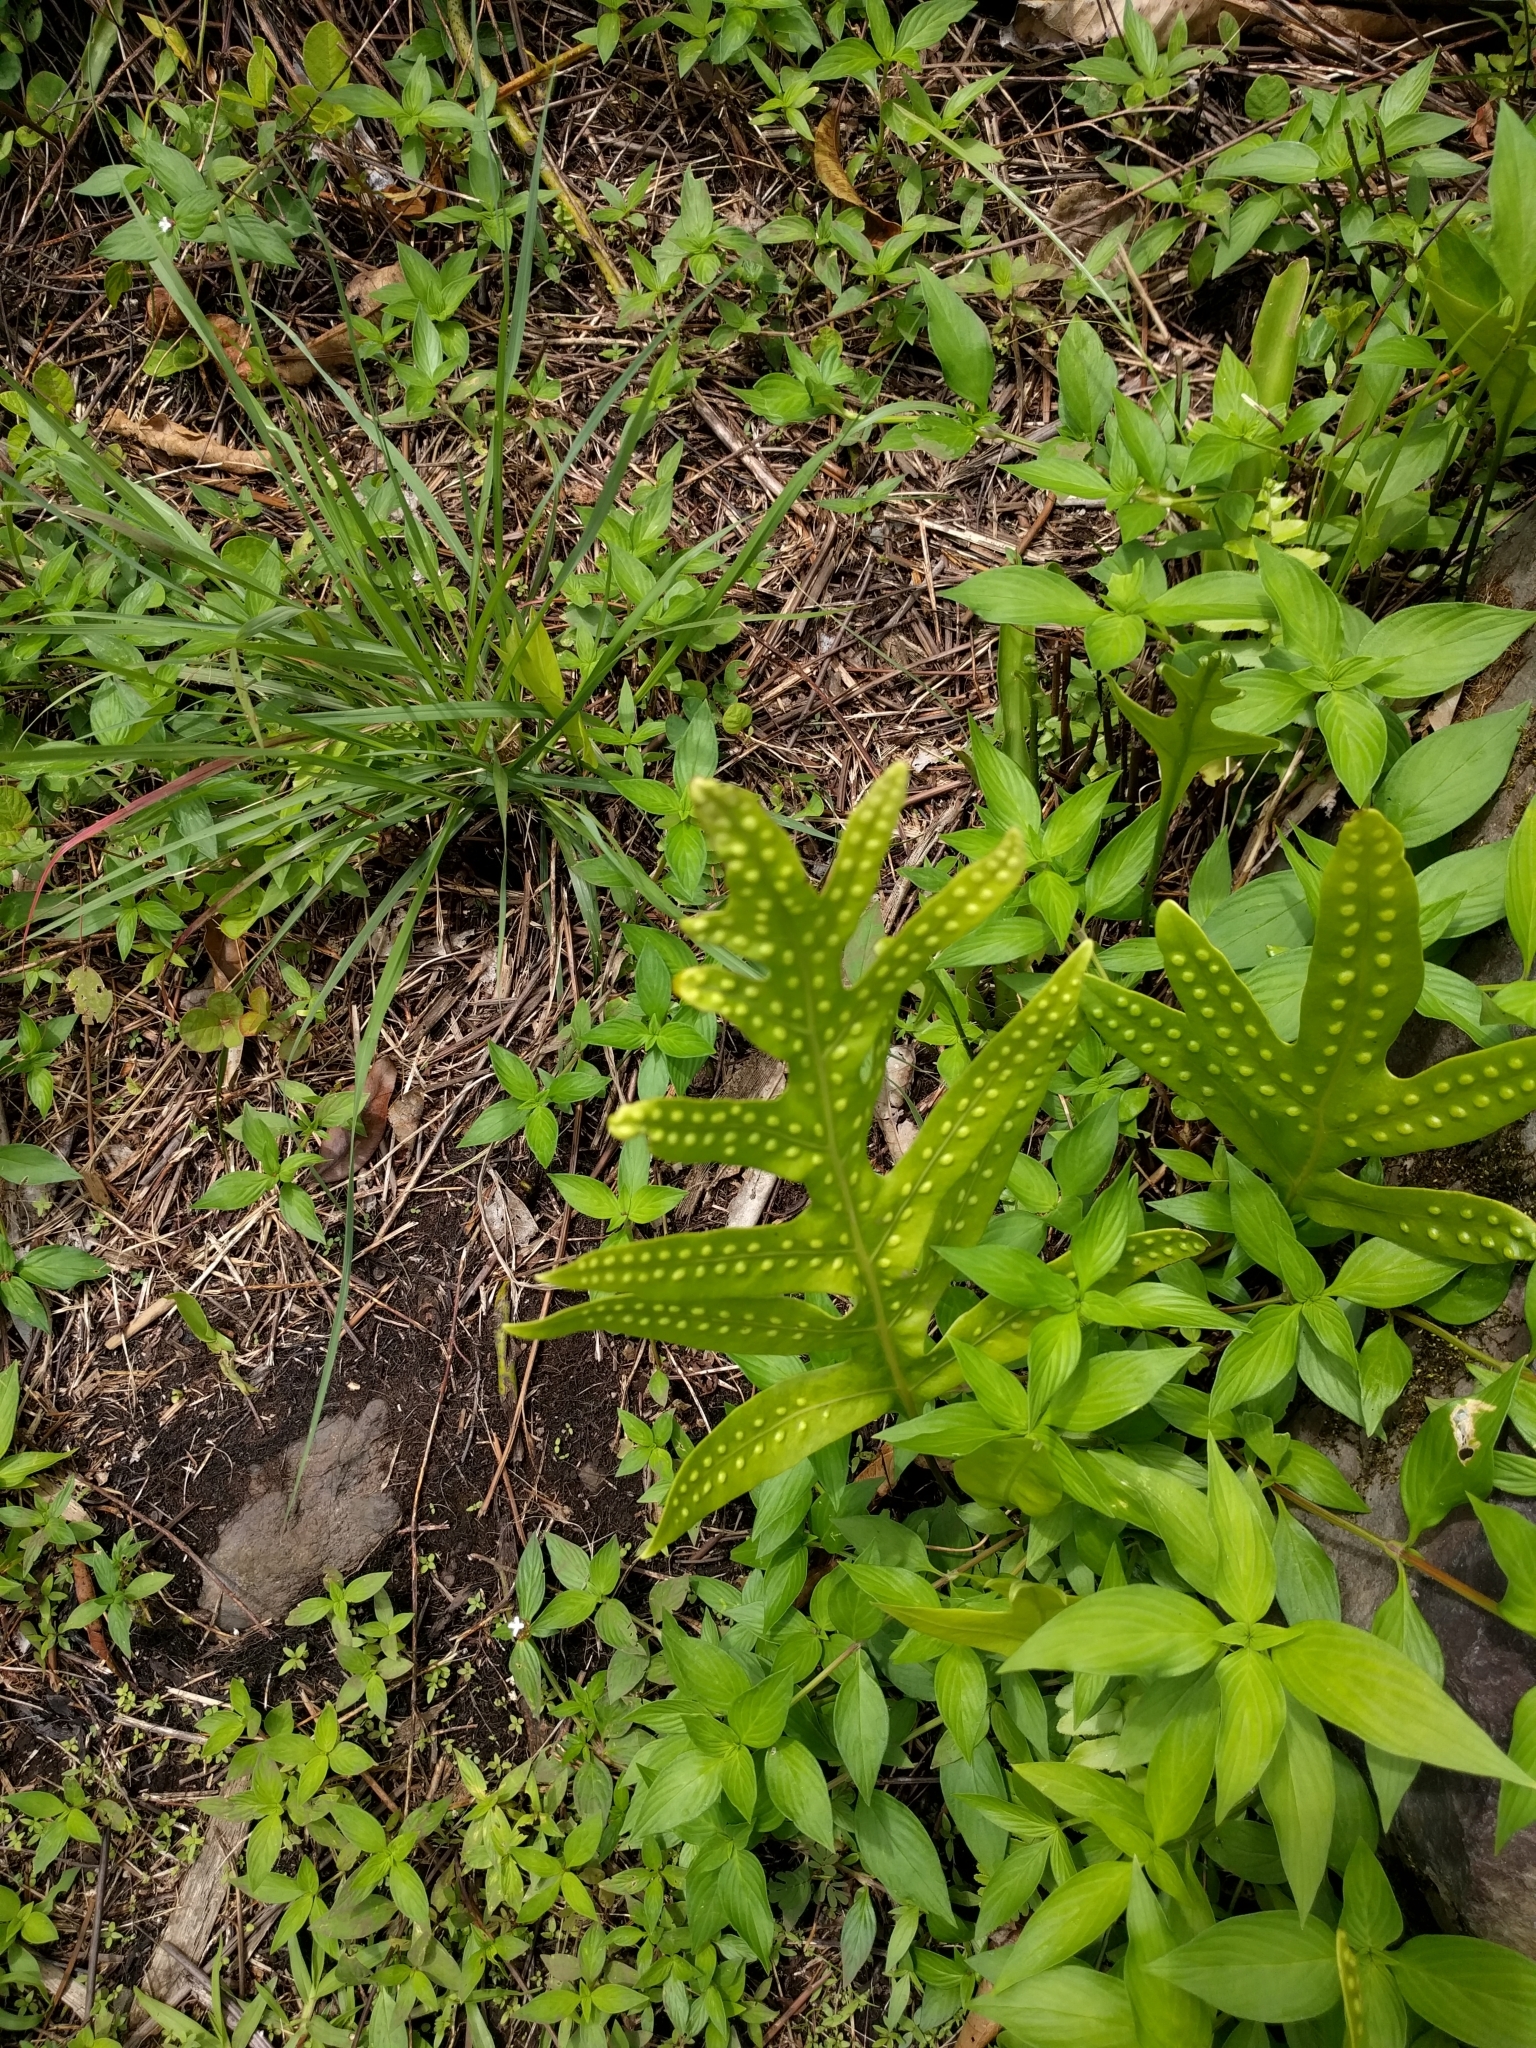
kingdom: Plantae
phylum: Tracheophyta
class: Polypodiopsida
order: Polypodiales
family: Polypodiaceae
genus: Microsorum
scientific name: Microsorum grossum
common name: Musk fern
